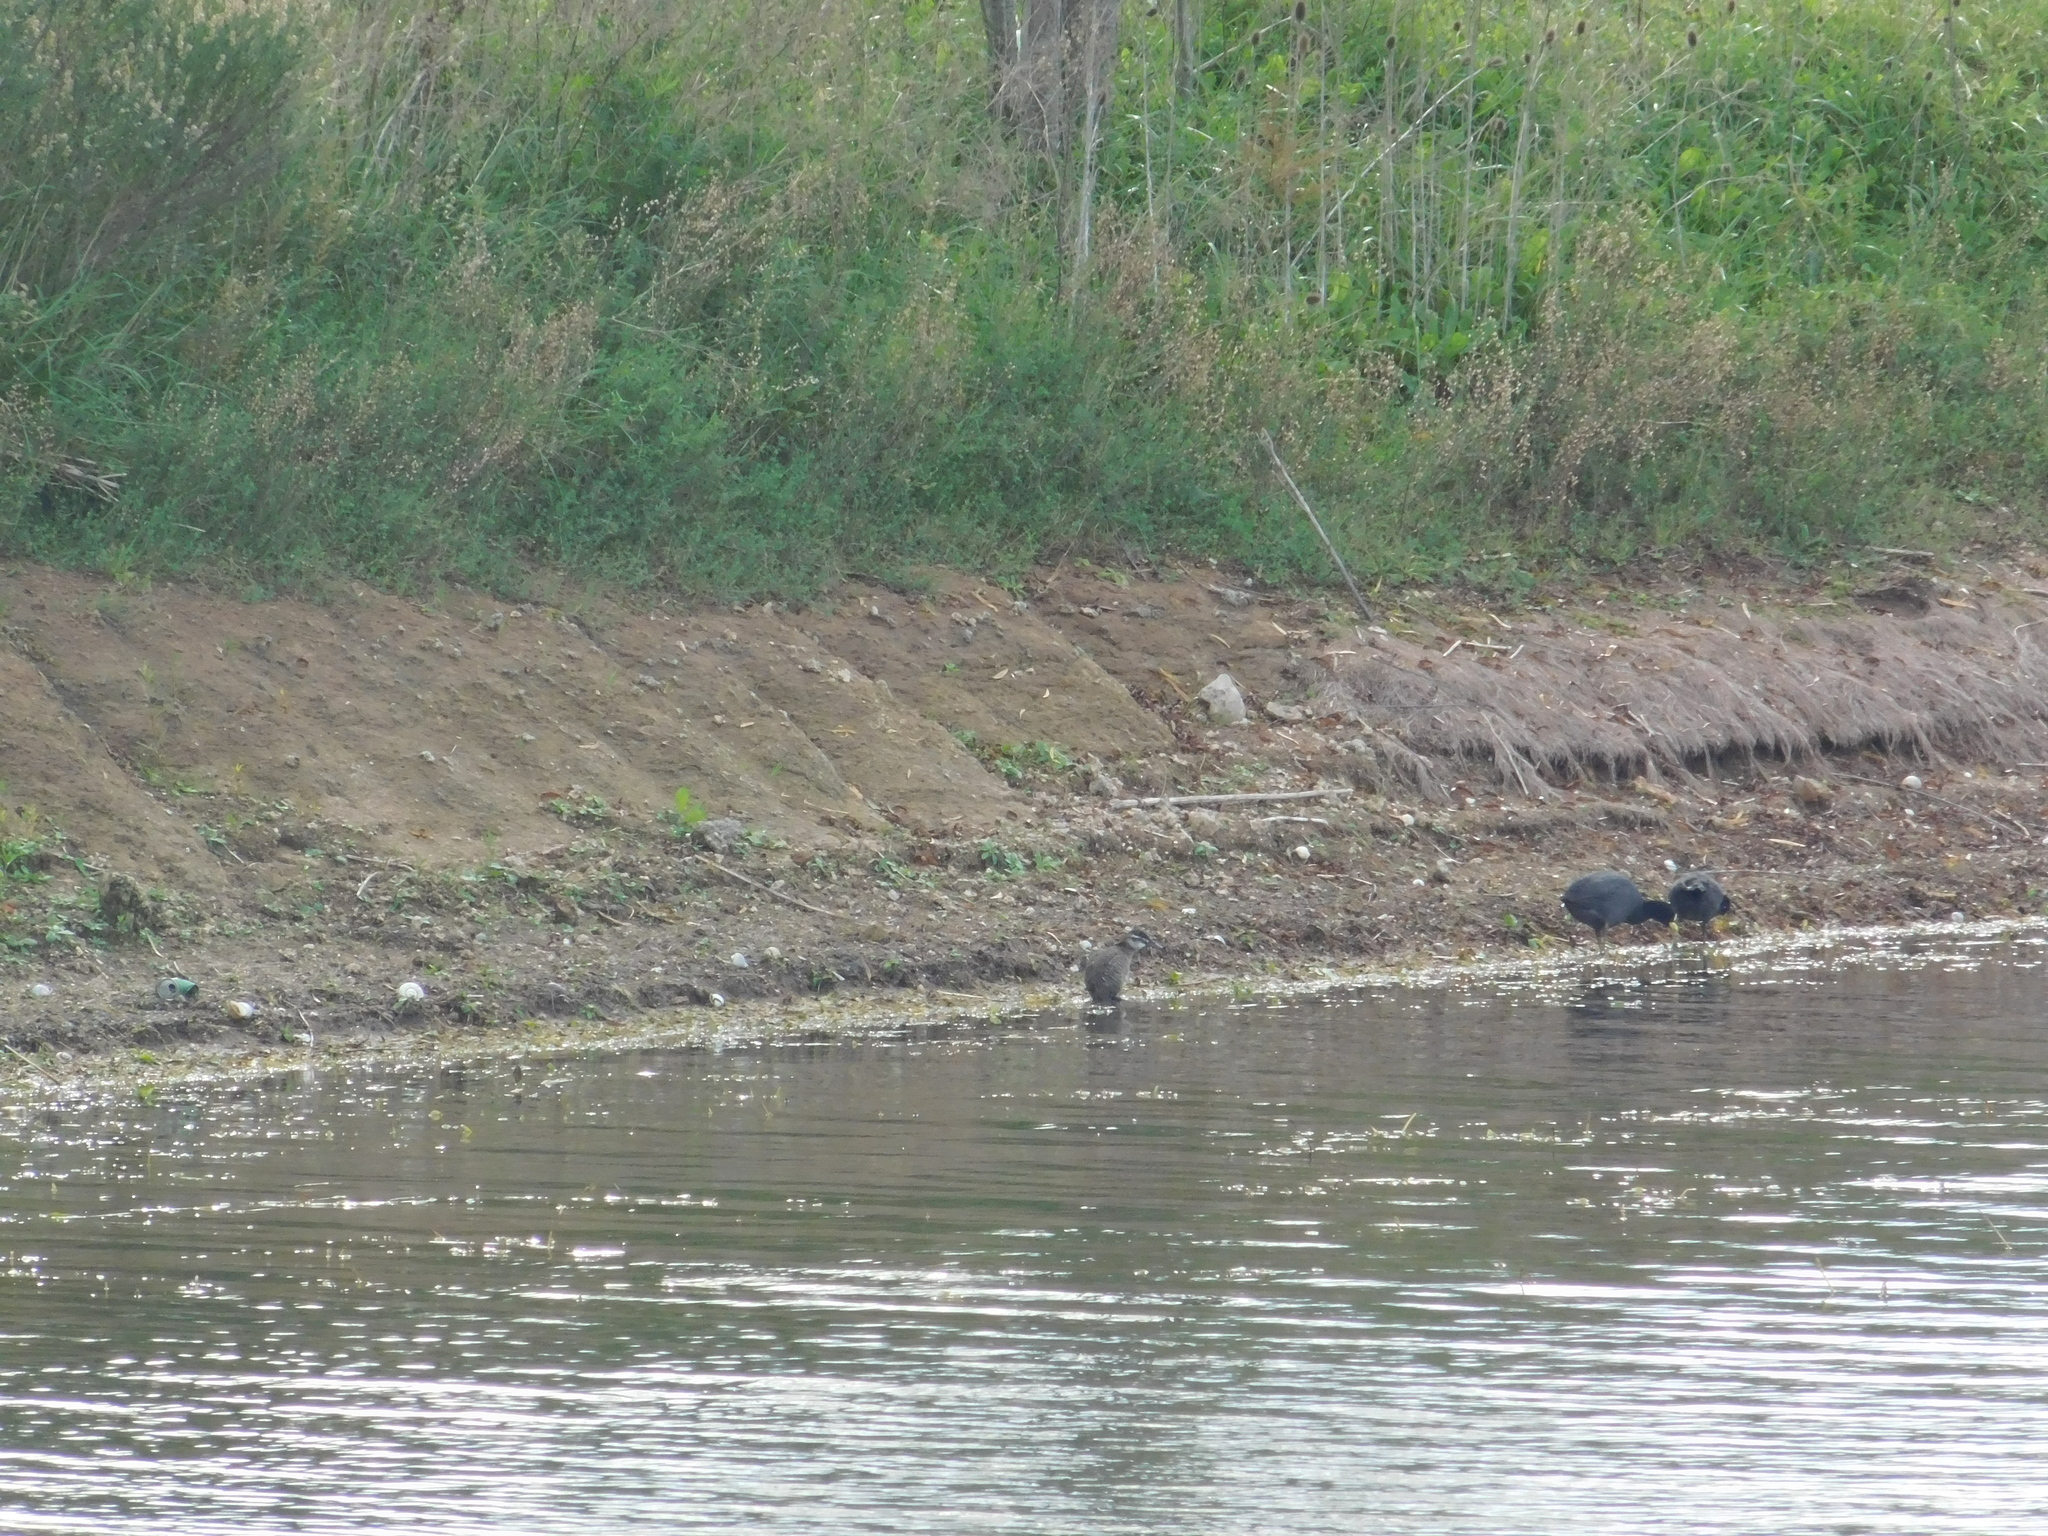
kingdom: Animalia
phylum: Chordata
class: Aves
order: Gruiformes
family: Rallidae
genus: Fulica
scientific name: Fulica armillata
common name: Red-gartered coot
